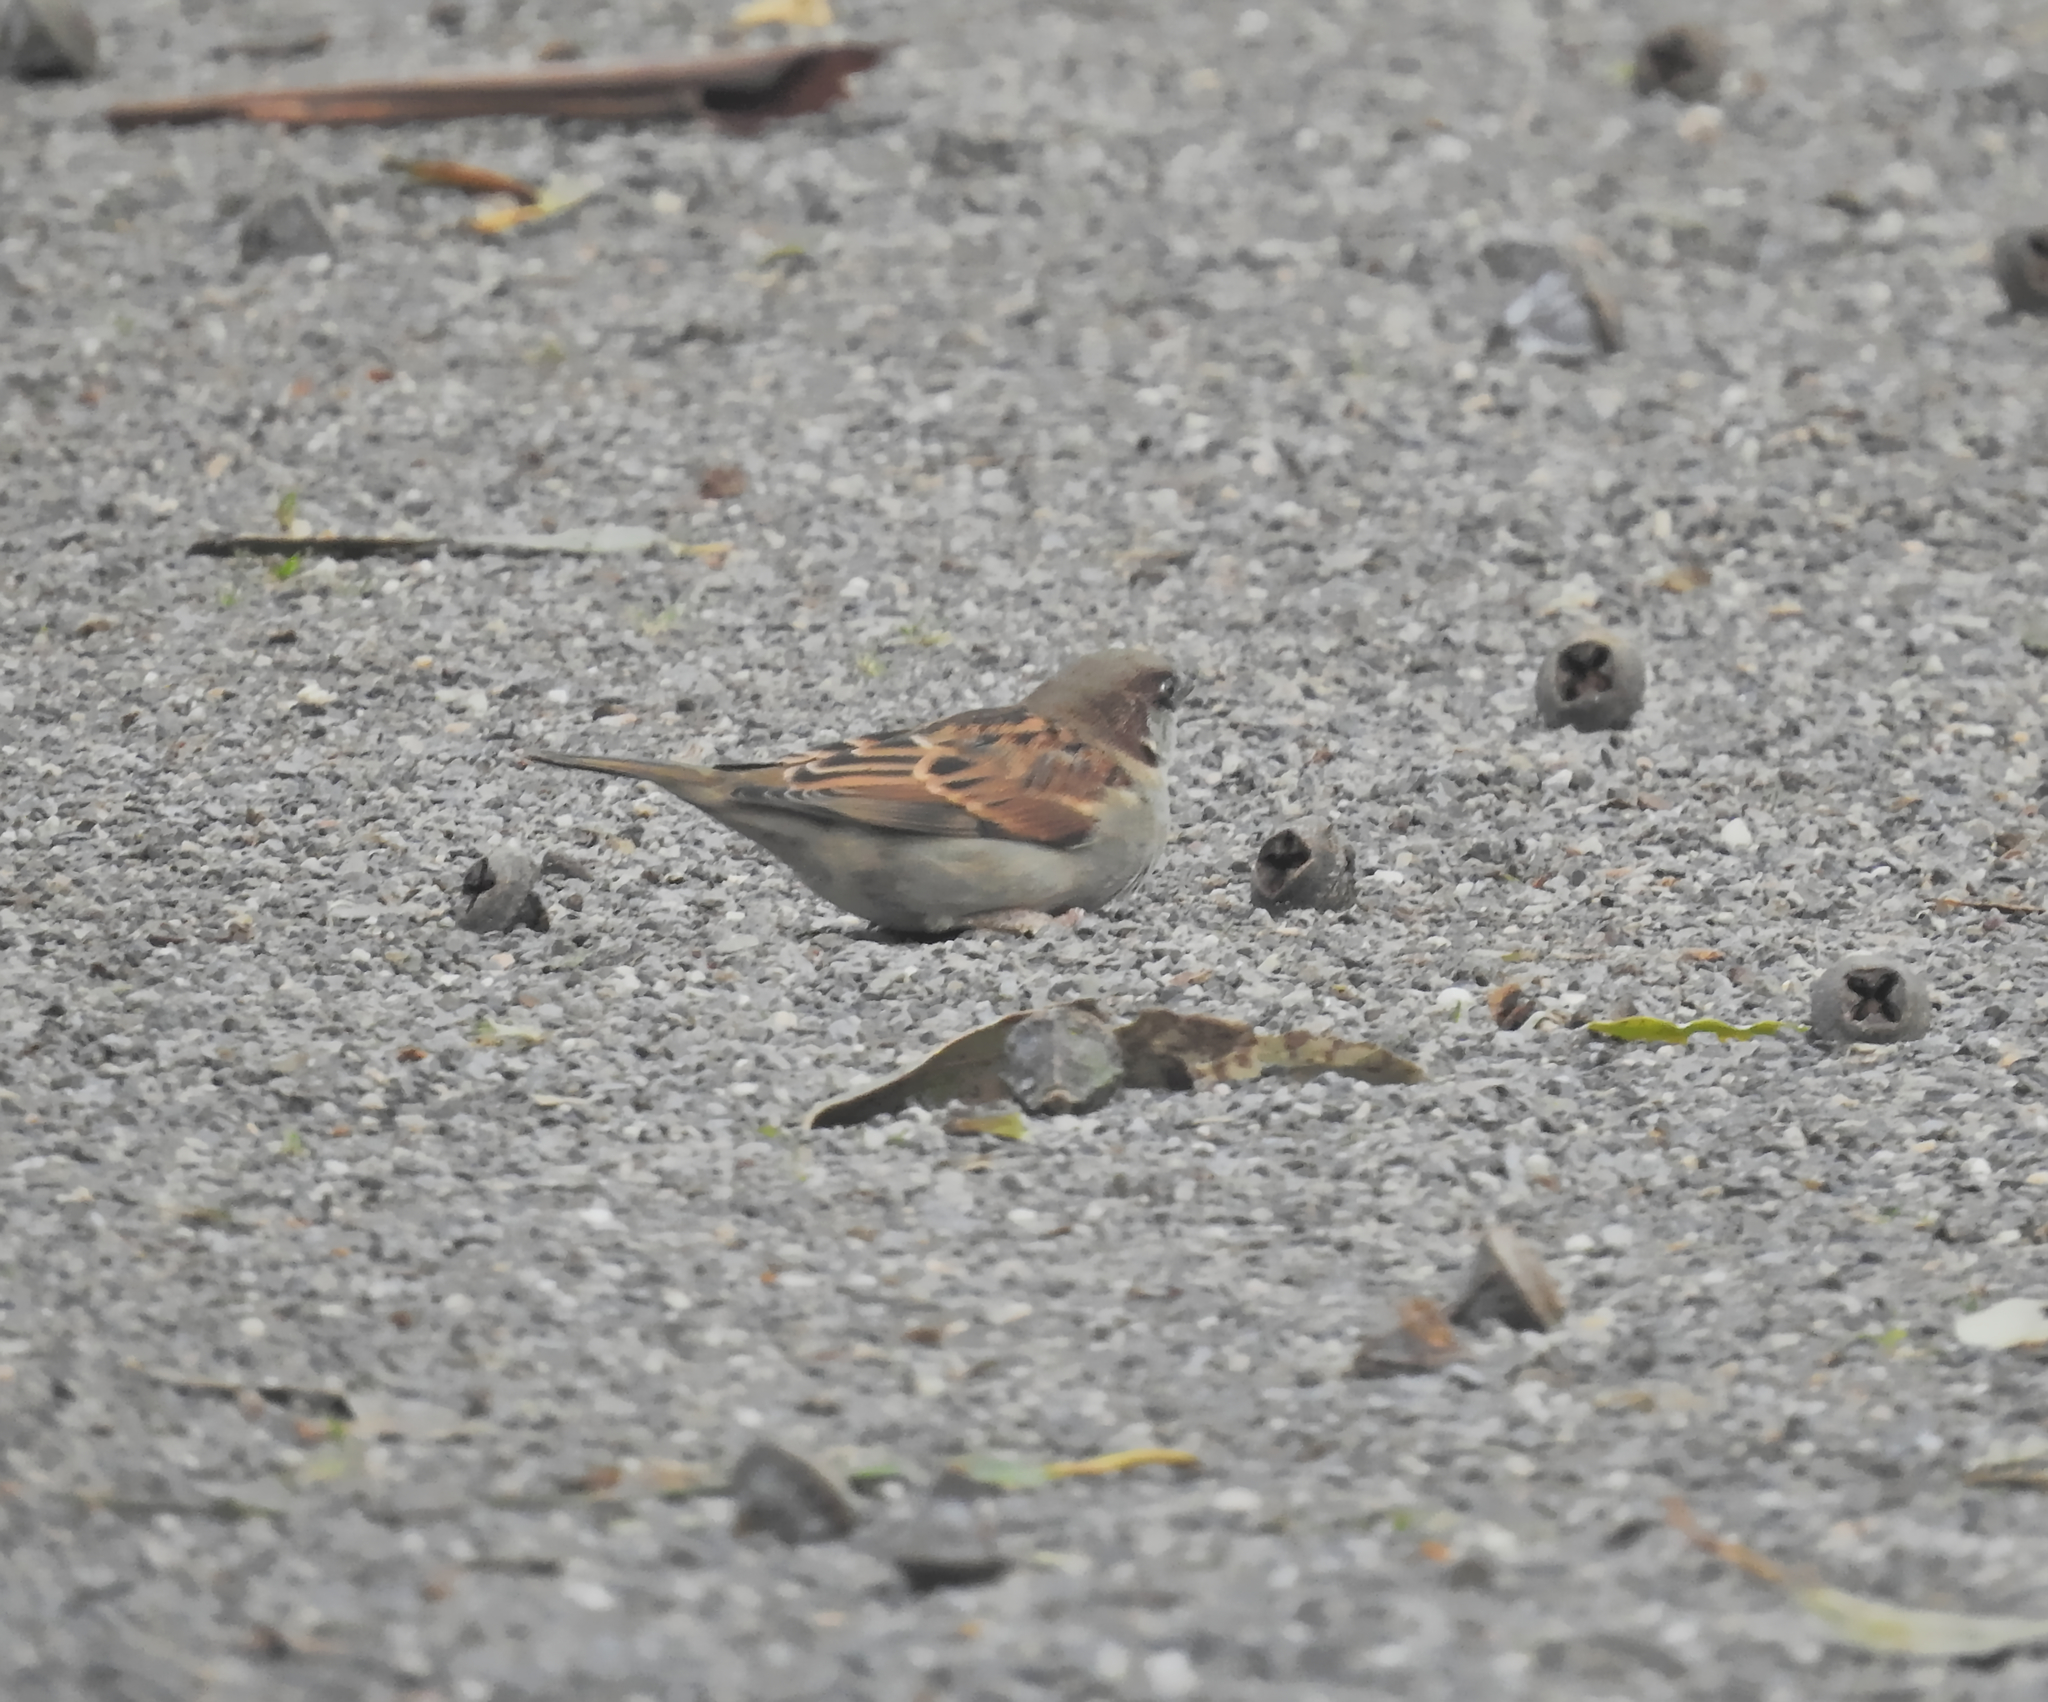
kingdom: Animalia
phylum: Chordata
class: Aves
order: Passeriformes
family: Passeridae
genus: Passer
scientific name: Passer domesticus
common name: House sparrow
